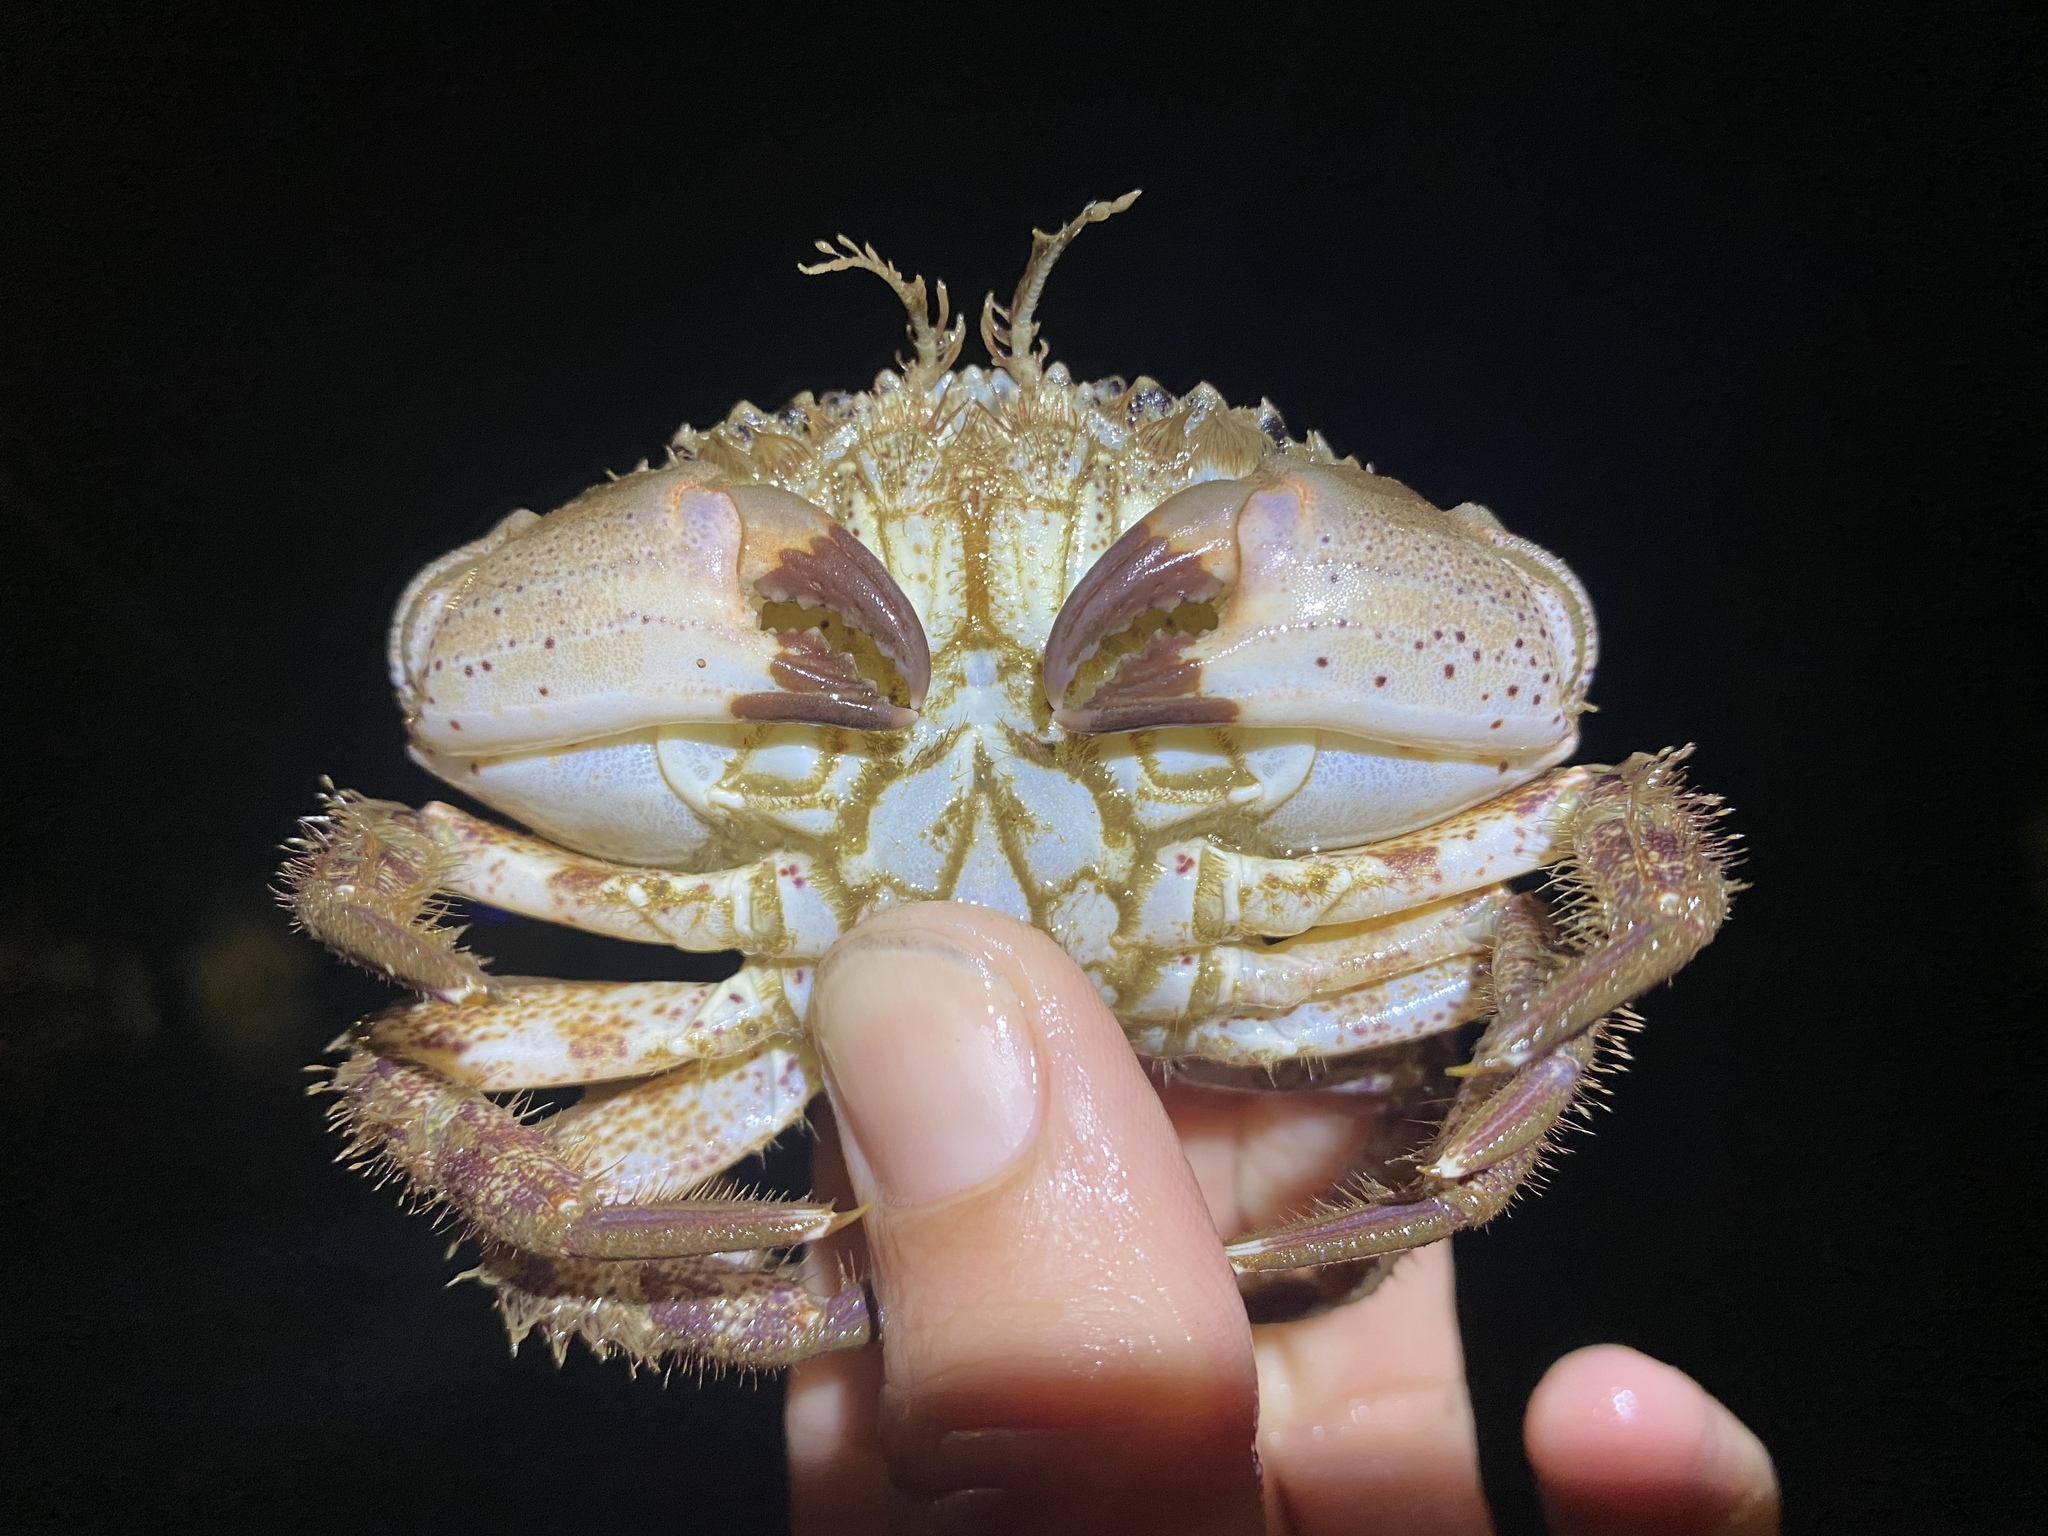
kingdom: Animalia
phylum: Arthropoda
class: Malacostraca
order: Decapoda
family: Cancridae
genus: Romaleon
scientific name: Romaleon antennarium
